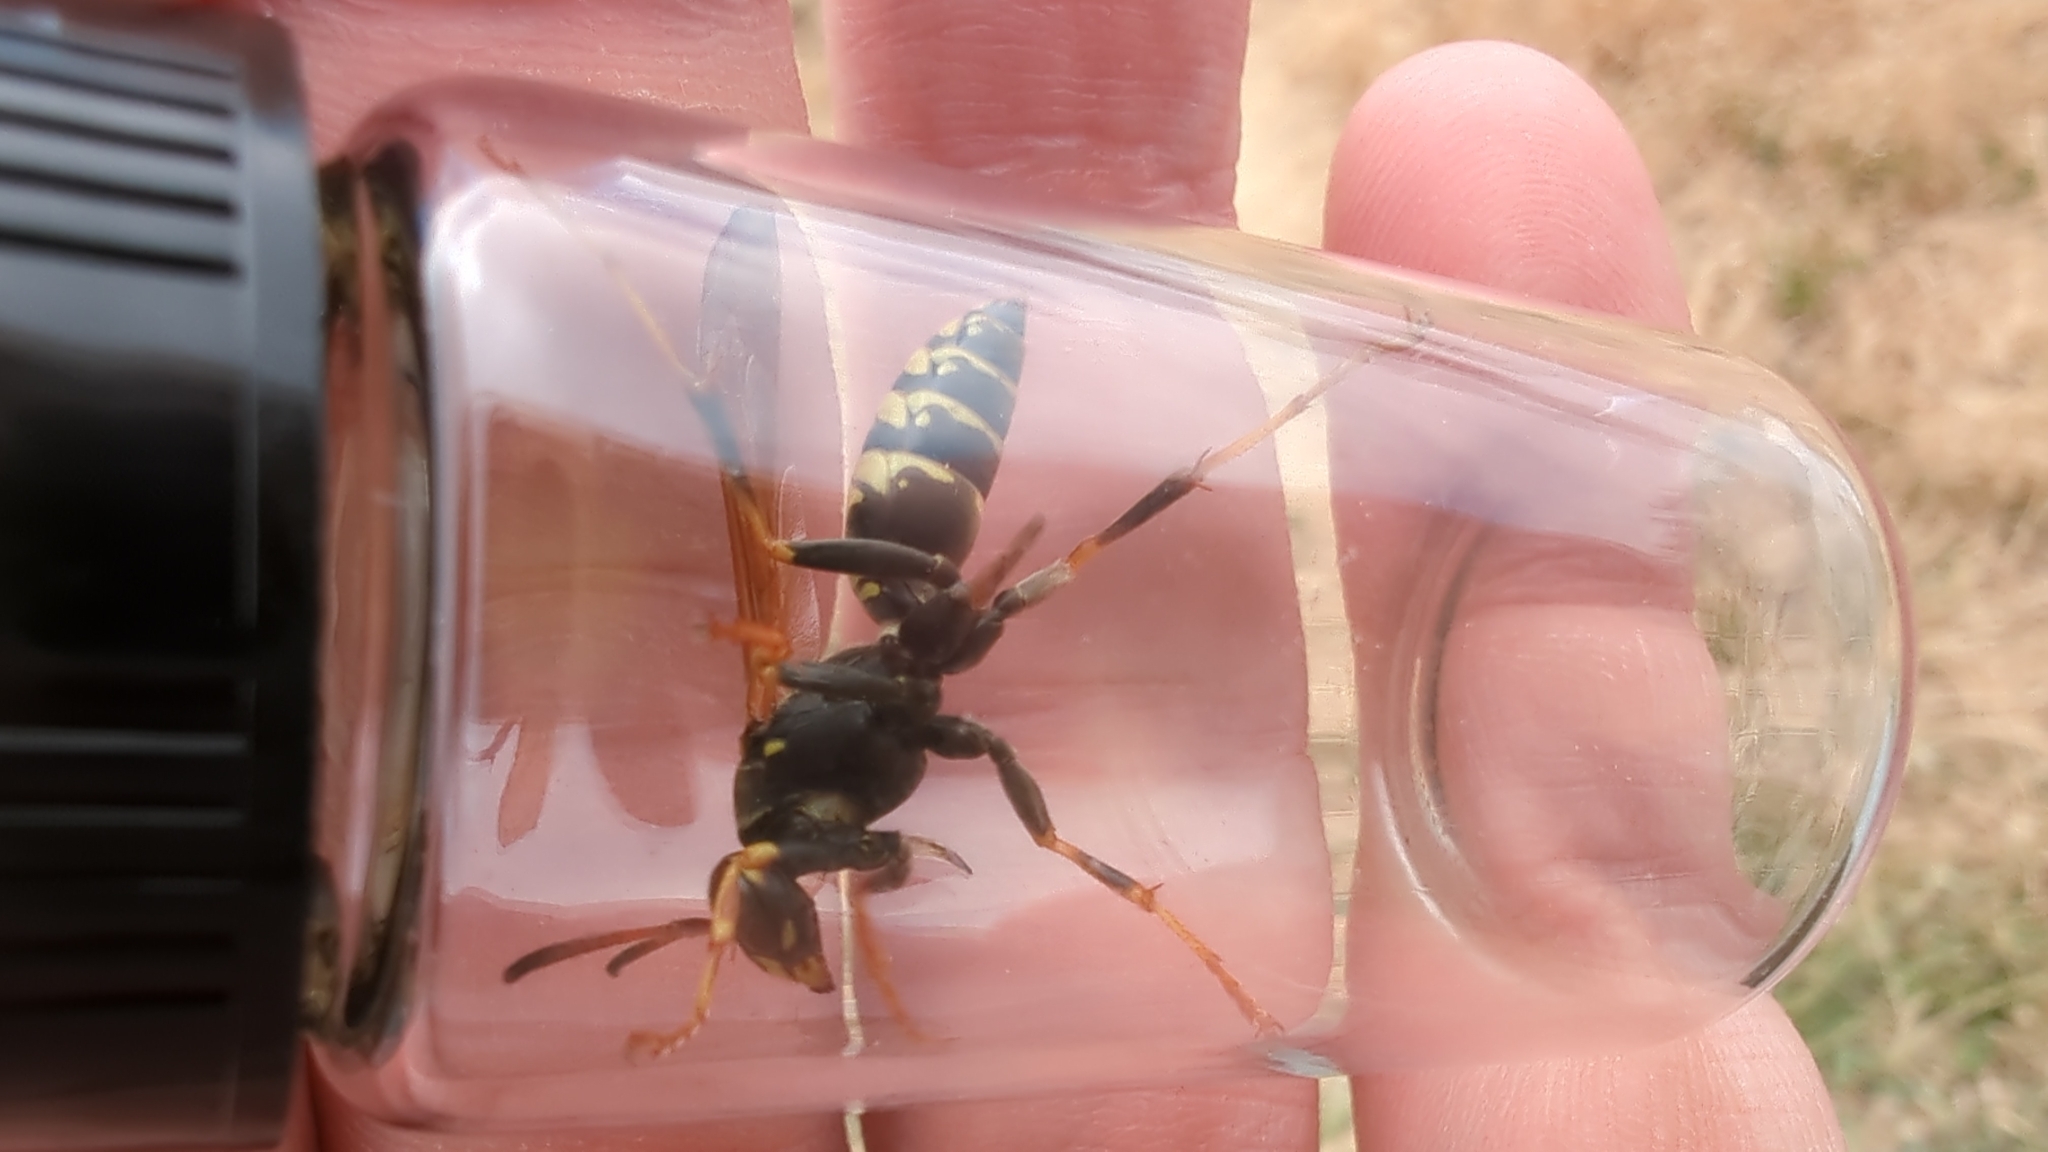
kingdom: Animalia
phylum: Arthropoda
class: Insecta
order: Hymenoptera
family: Eumenidae
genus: Polistes
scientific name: Polistes aurifer
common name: Paper wasp
